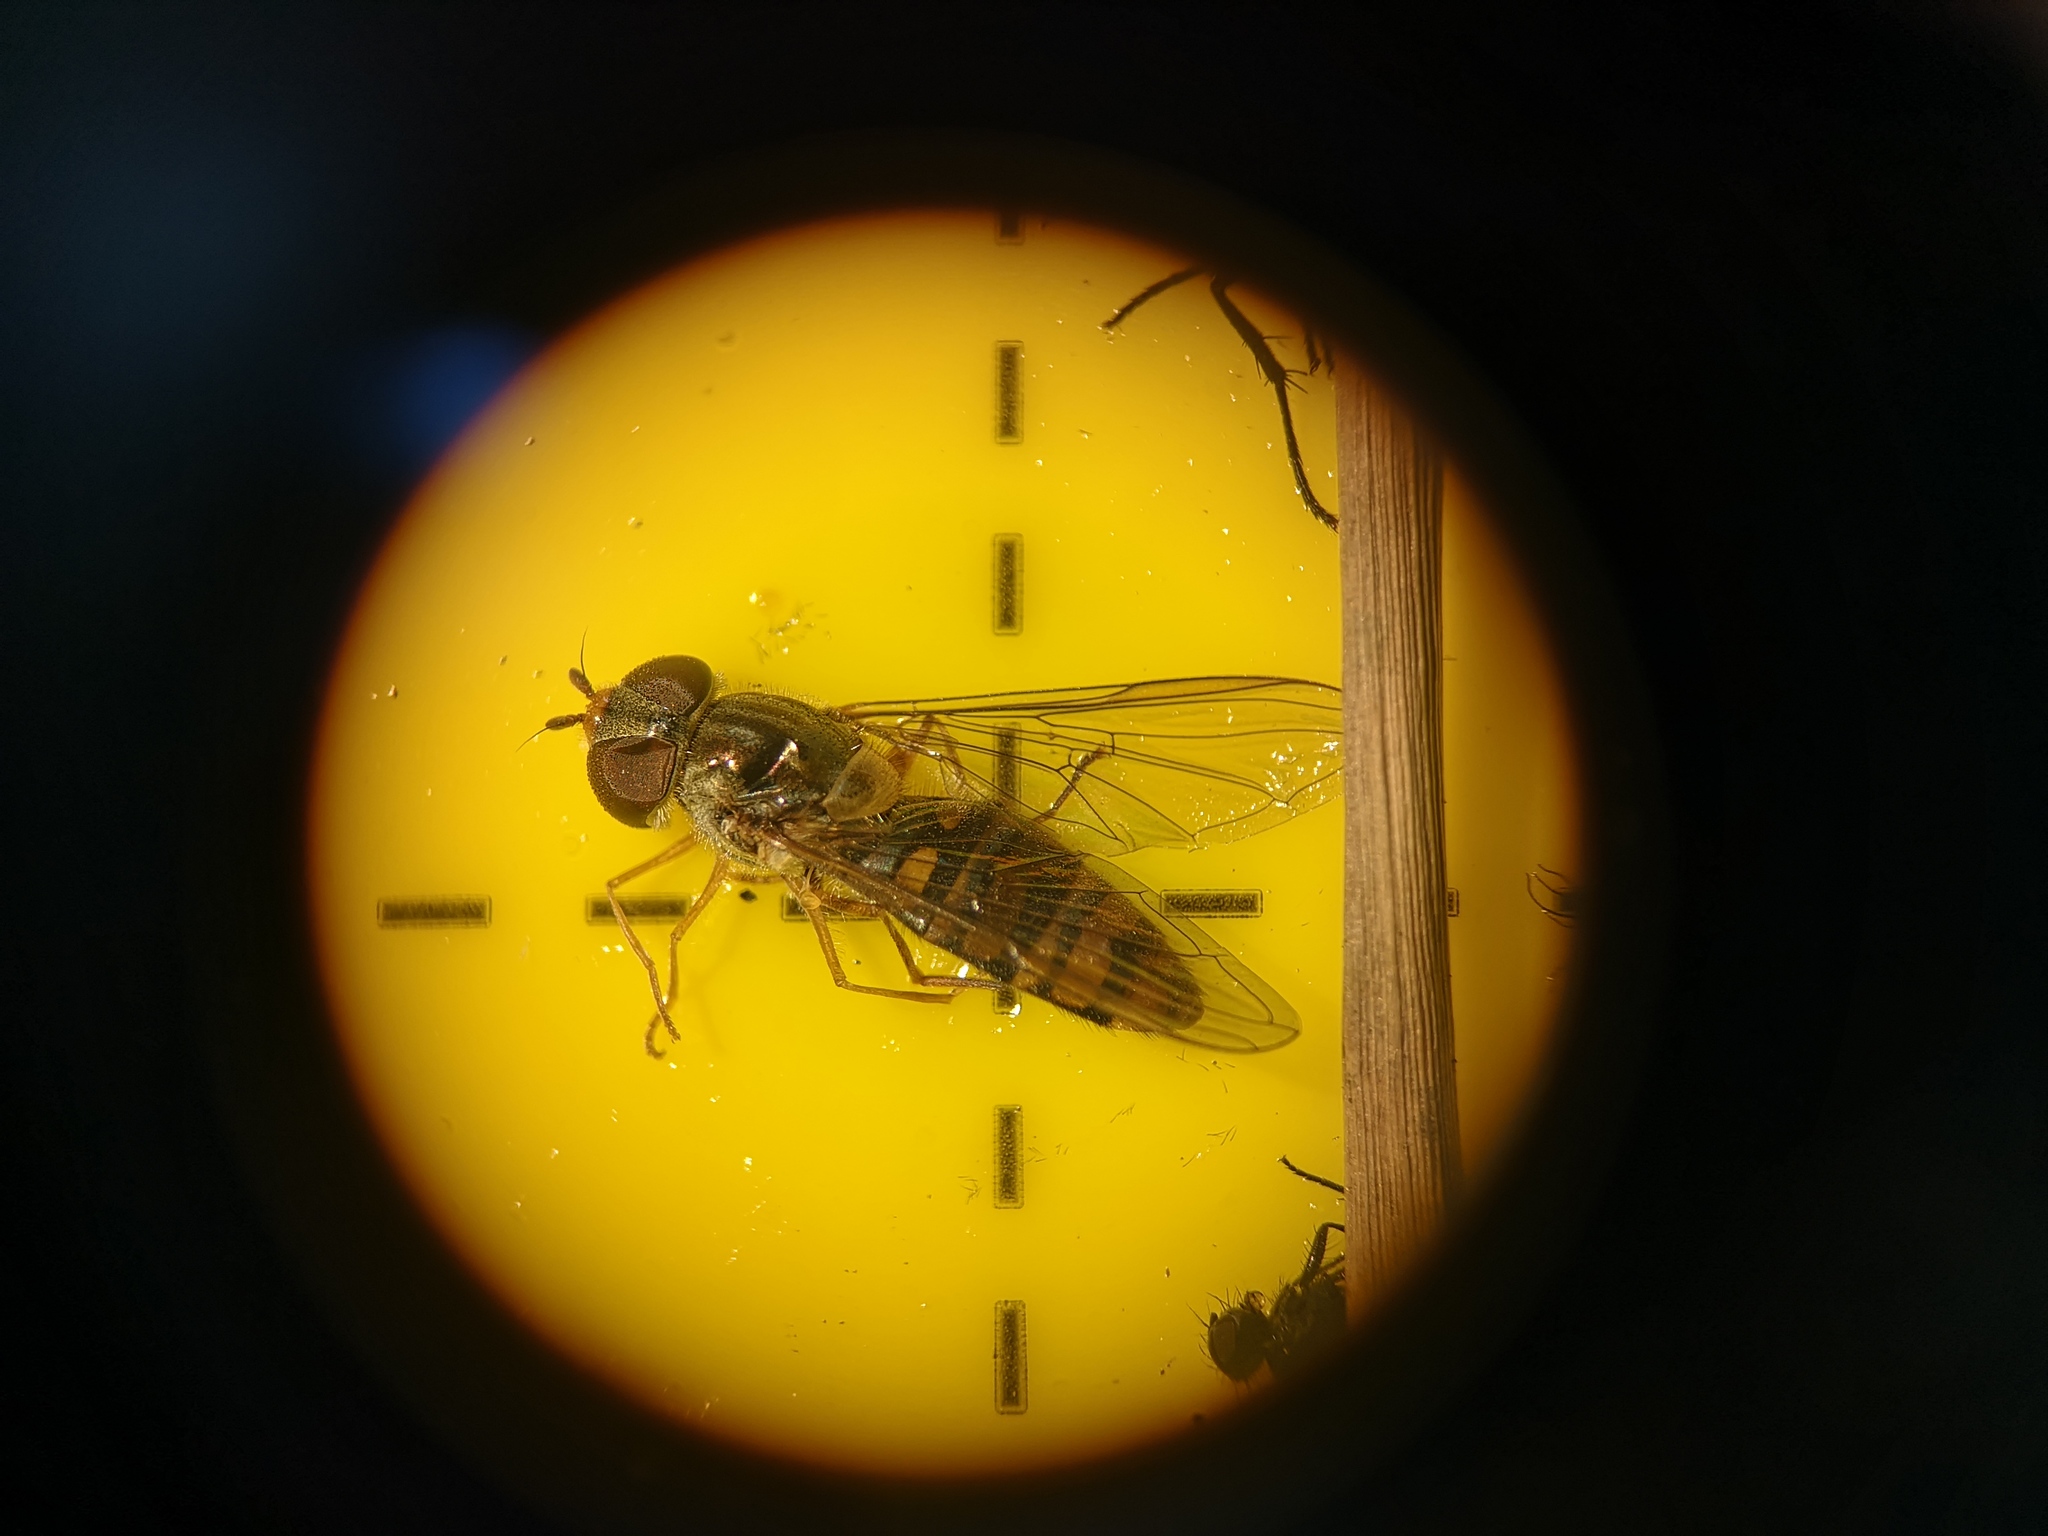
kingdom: Animalia
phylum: Arthropoda
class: Insecta
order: Diptera
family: Syrphidae
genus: Episyrphus
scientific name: Episyrphus balteatus
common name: Marmalade hoverfly
